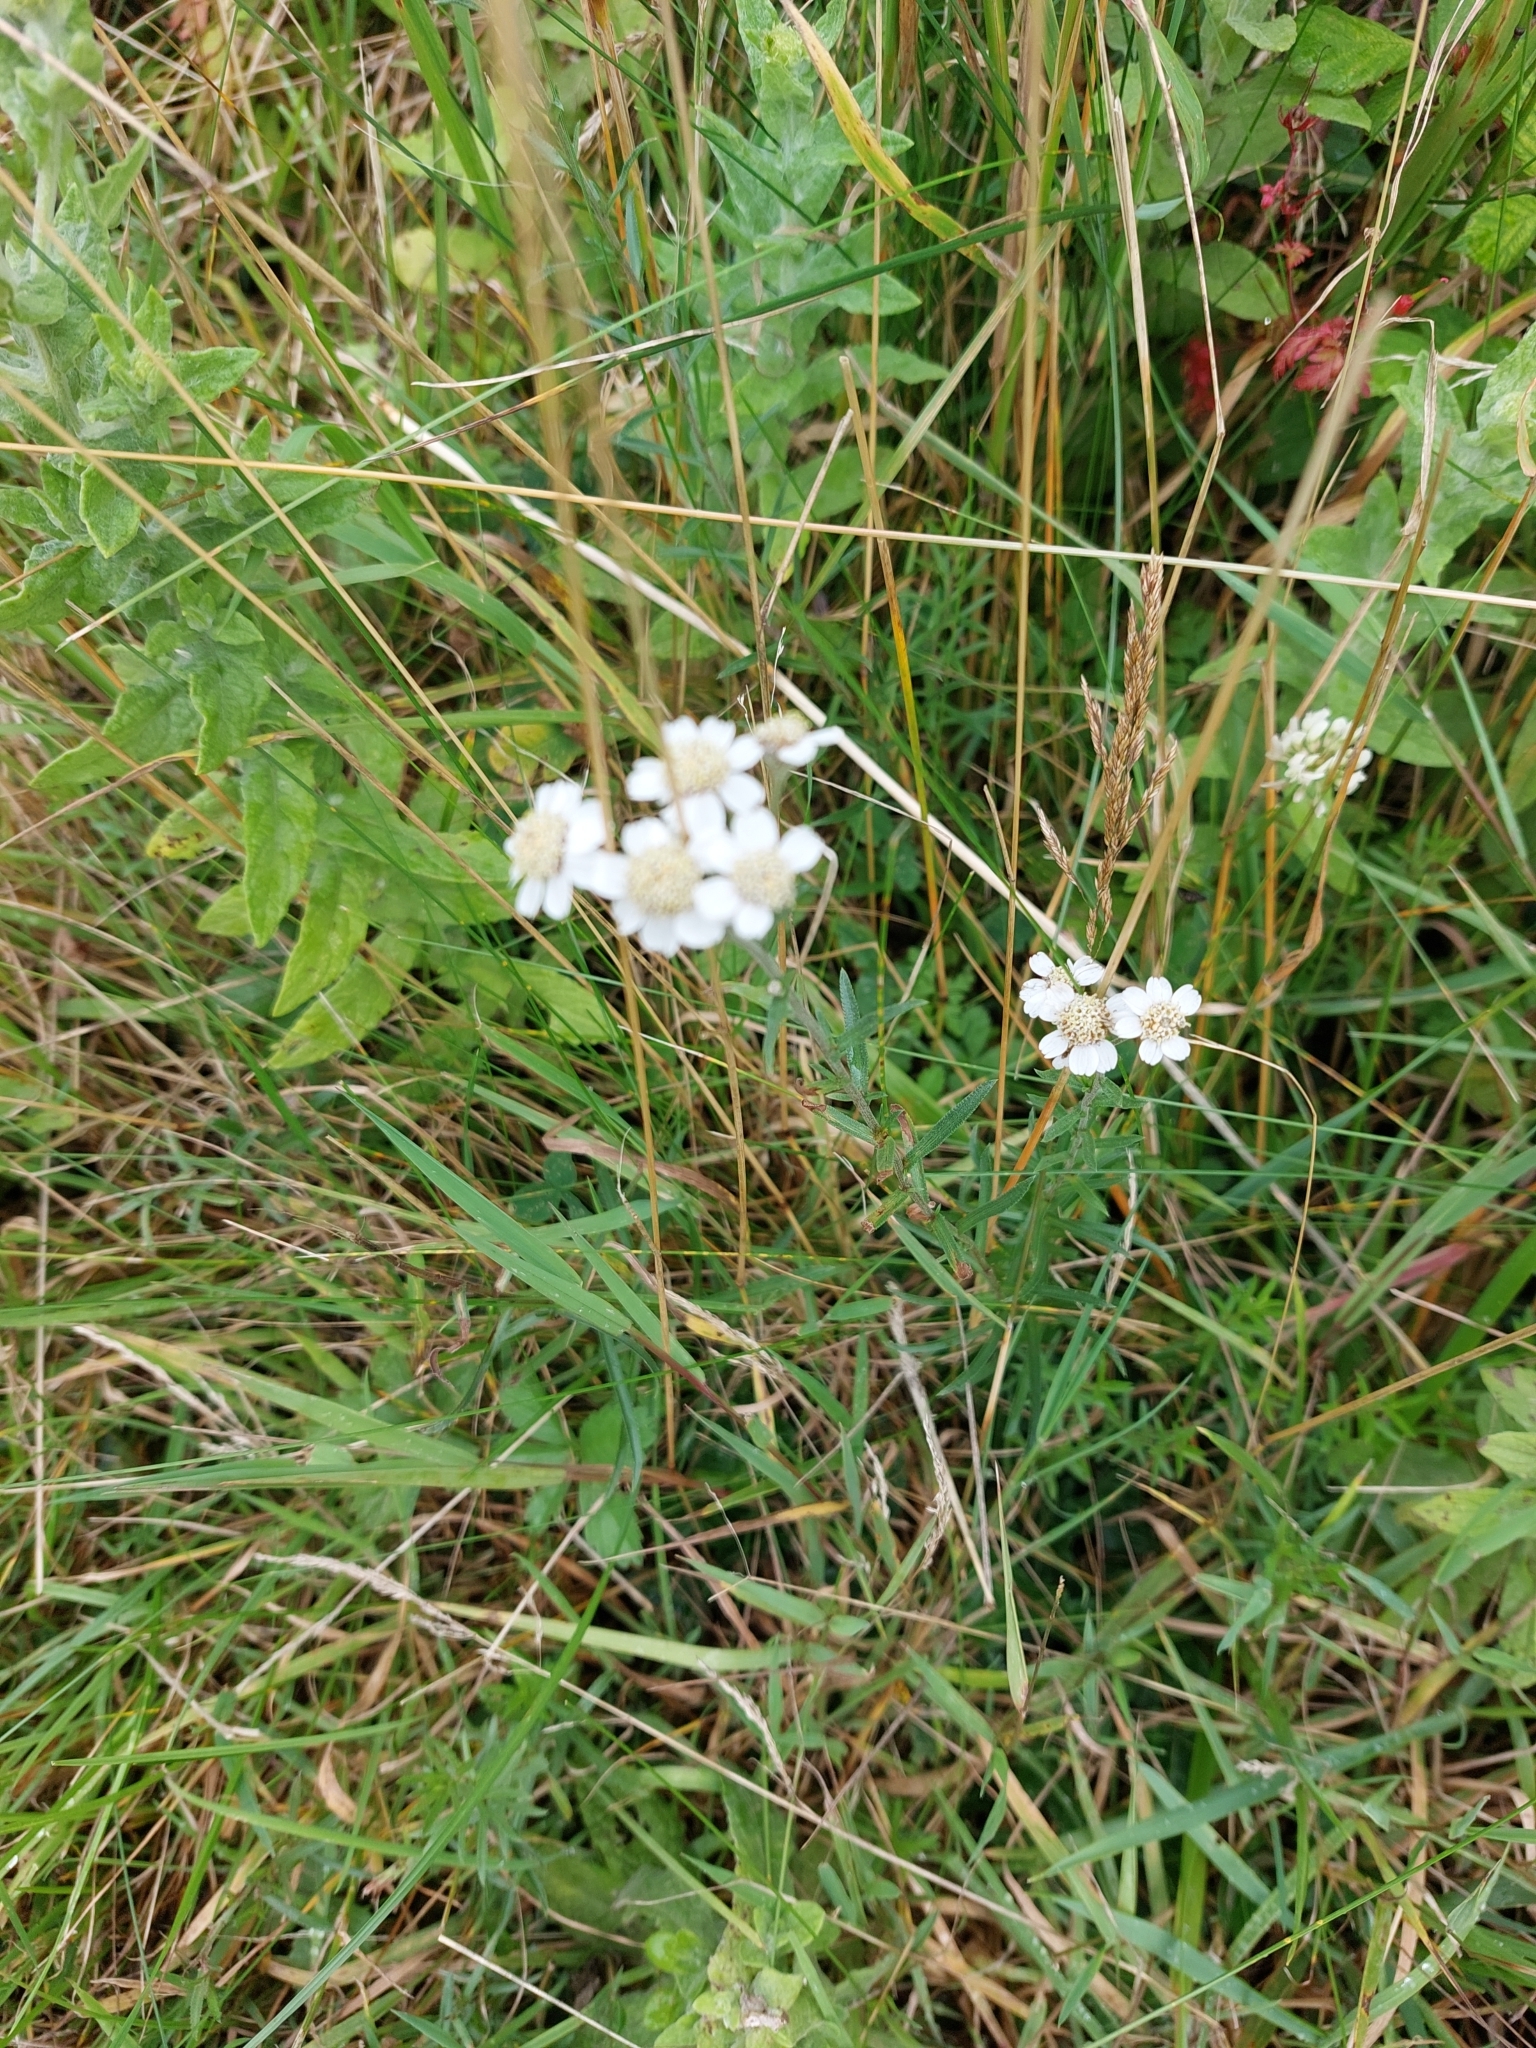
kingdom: Plantae
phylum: Tracheophyta
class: Magnoliopsida
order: Asterales
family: Asteraceae
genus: Achillea
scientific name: Achillea ptarmica
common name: Sneezeweed
